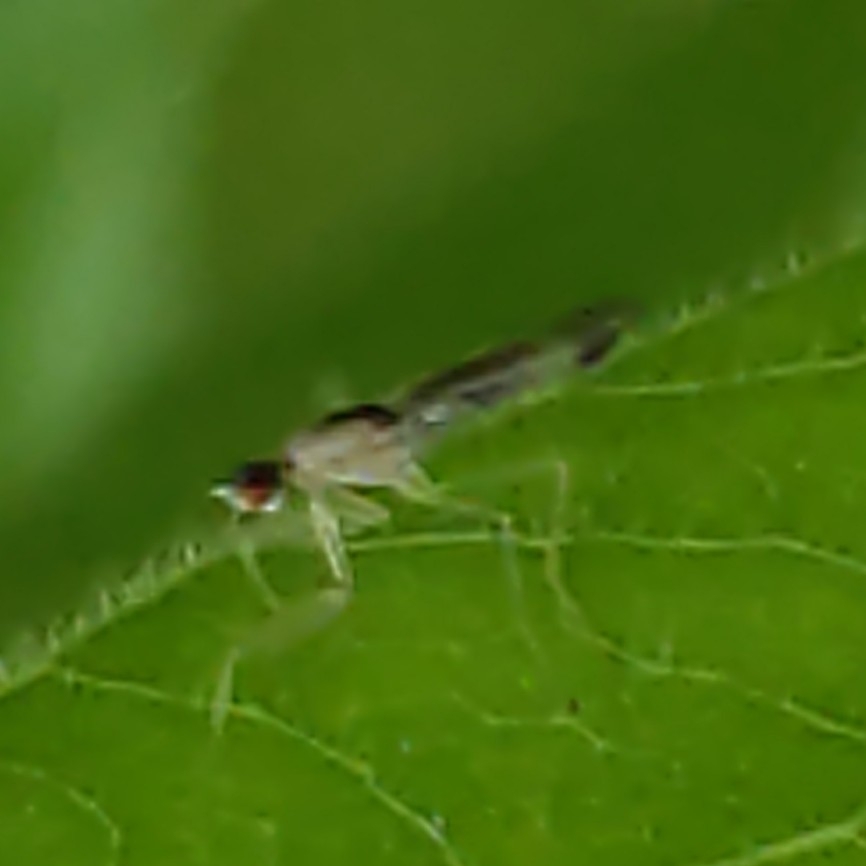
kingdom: Animalia
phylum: Arthropoda
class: Insecta
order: Diptera
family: Empididae
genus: Hemerodromia
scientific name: Hemerodromia superstitiosa
